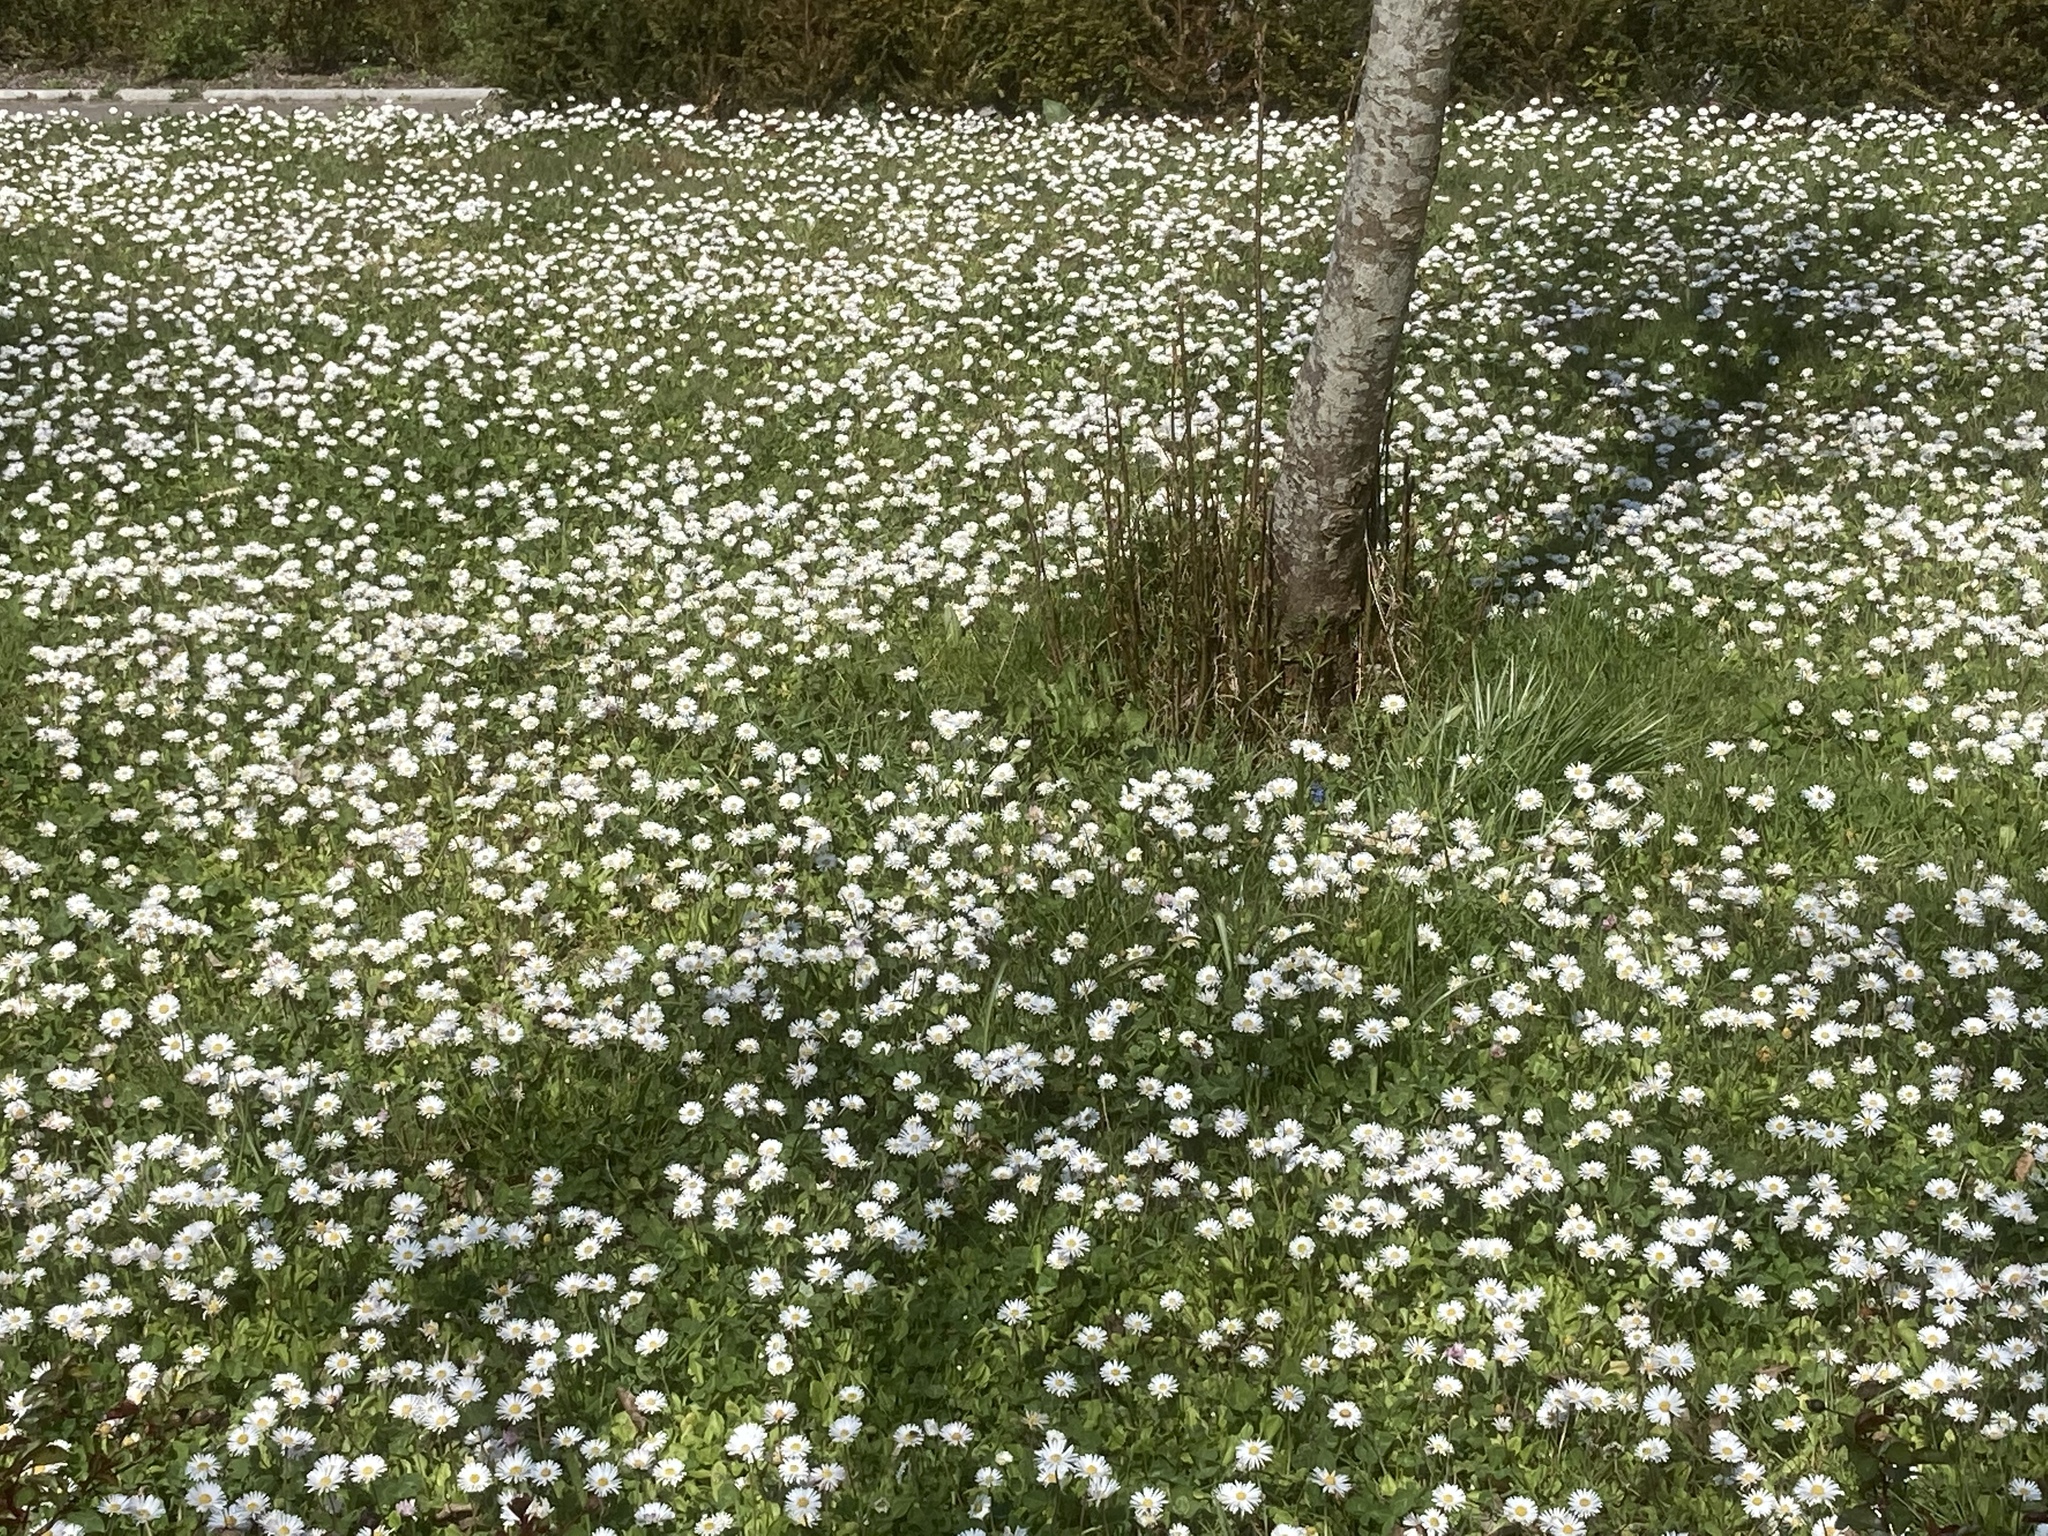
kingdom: Plantae
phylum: Tracheophyta
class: Magnoliopsida
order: Asterales
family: Asteraceae
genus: Bellis
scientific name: Bellis perennis
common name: Lawndaisy
